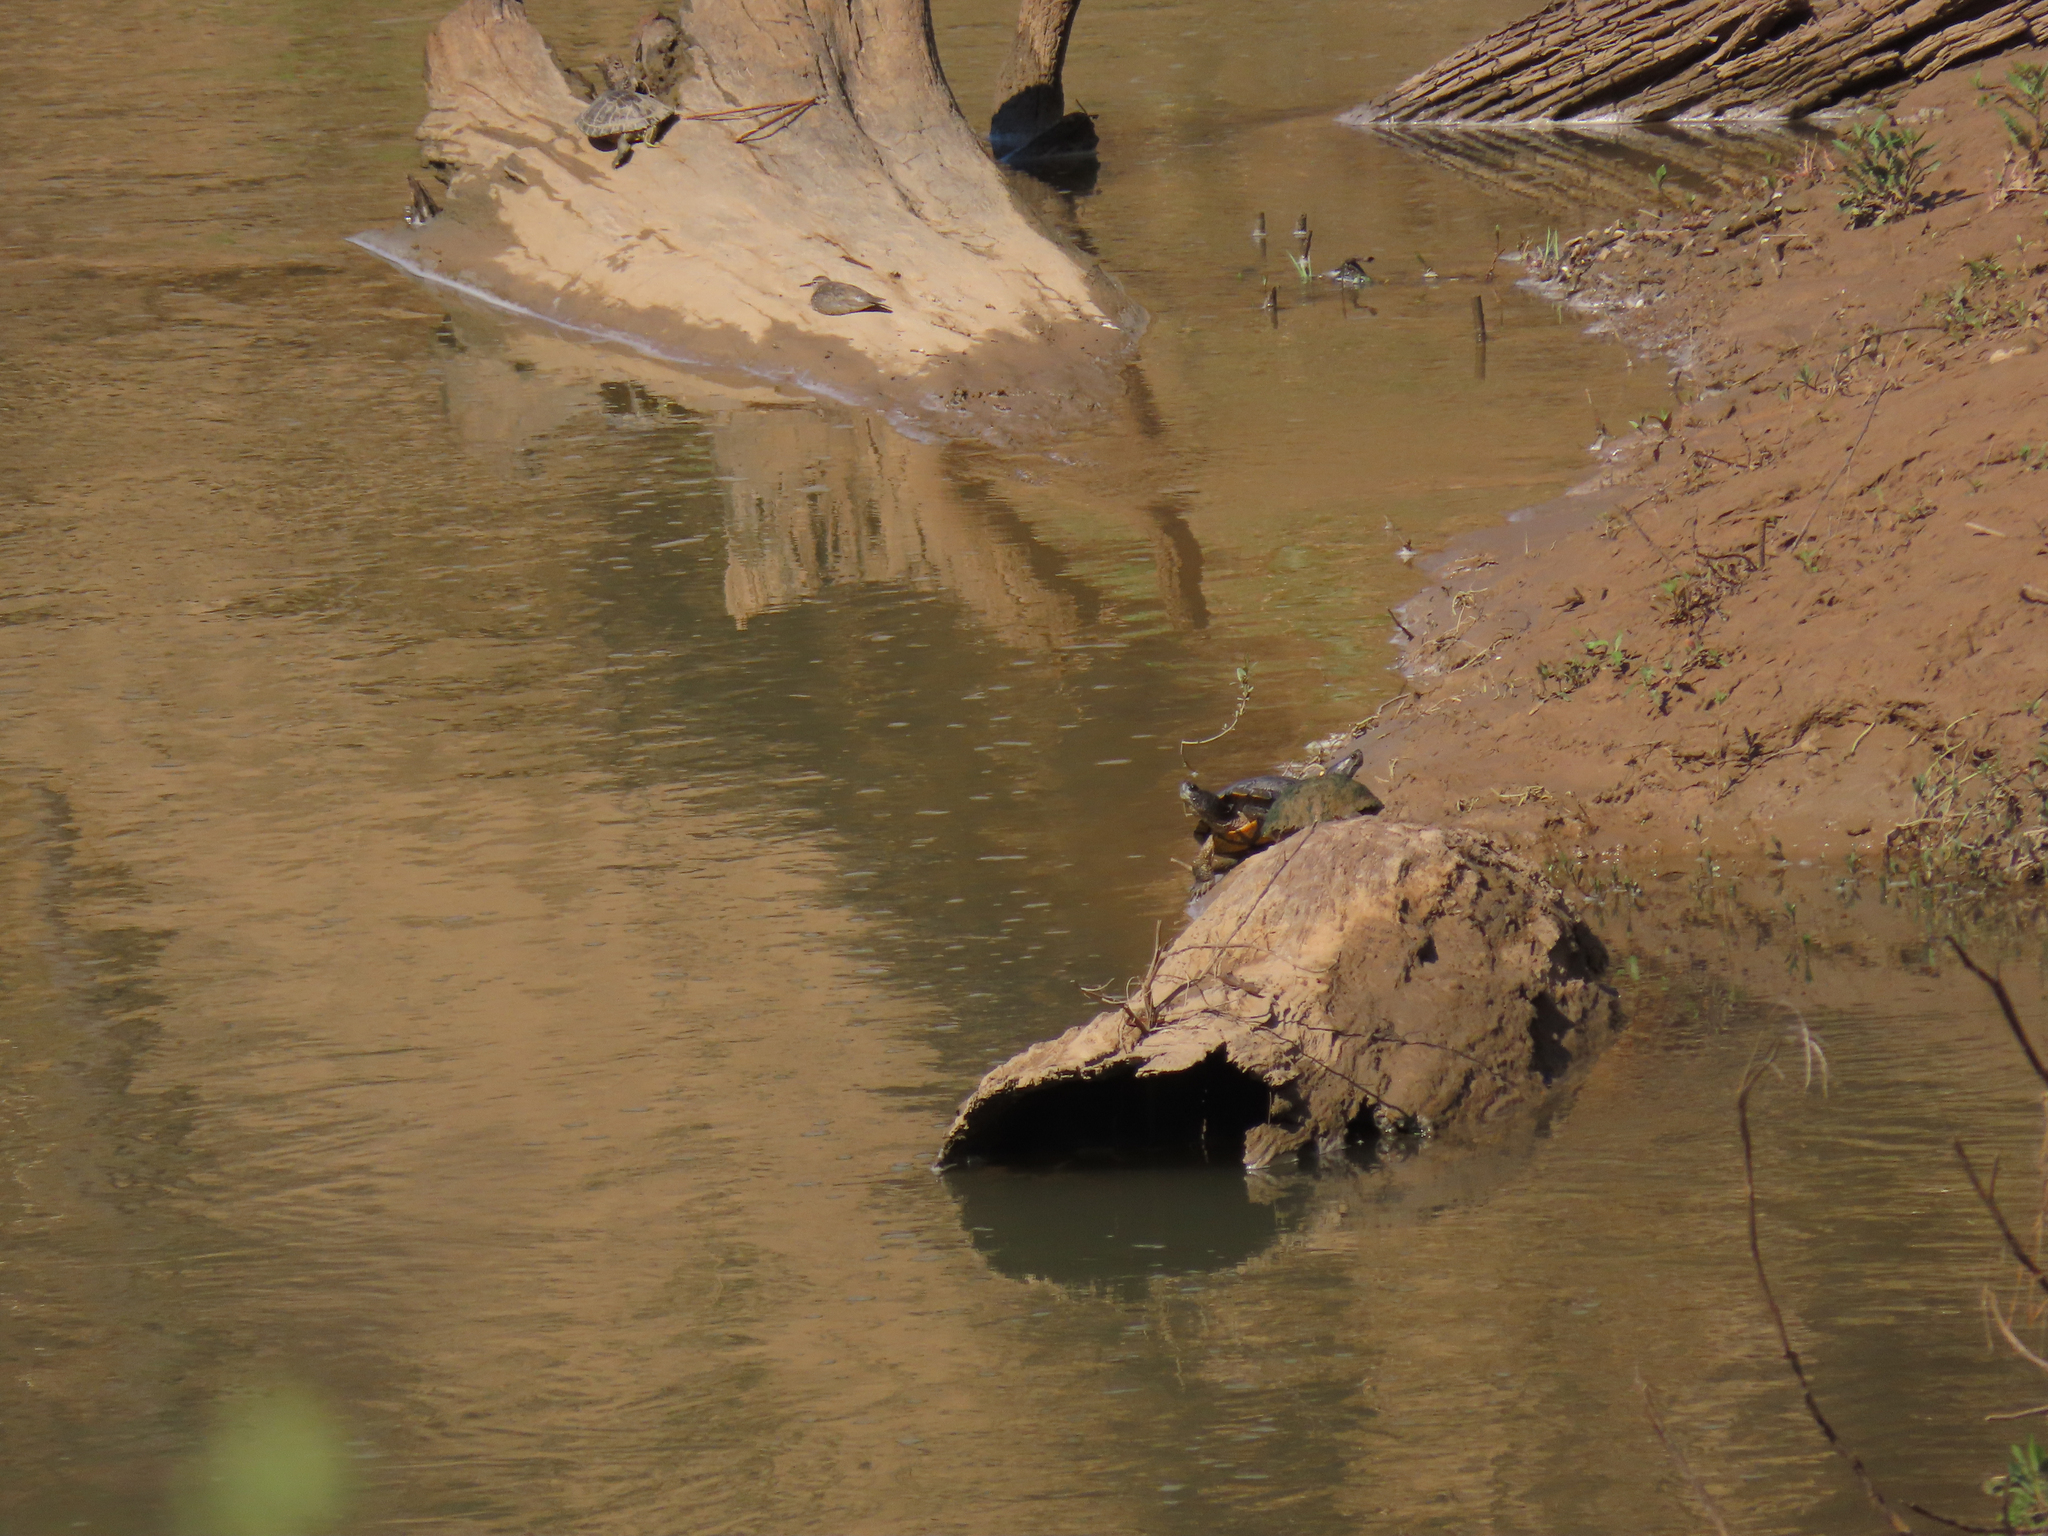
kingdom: Animalia
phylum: Chordata
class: Testudines
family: Emydidae
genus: Trachemys
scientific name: Trachemys scripta
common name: Slider
